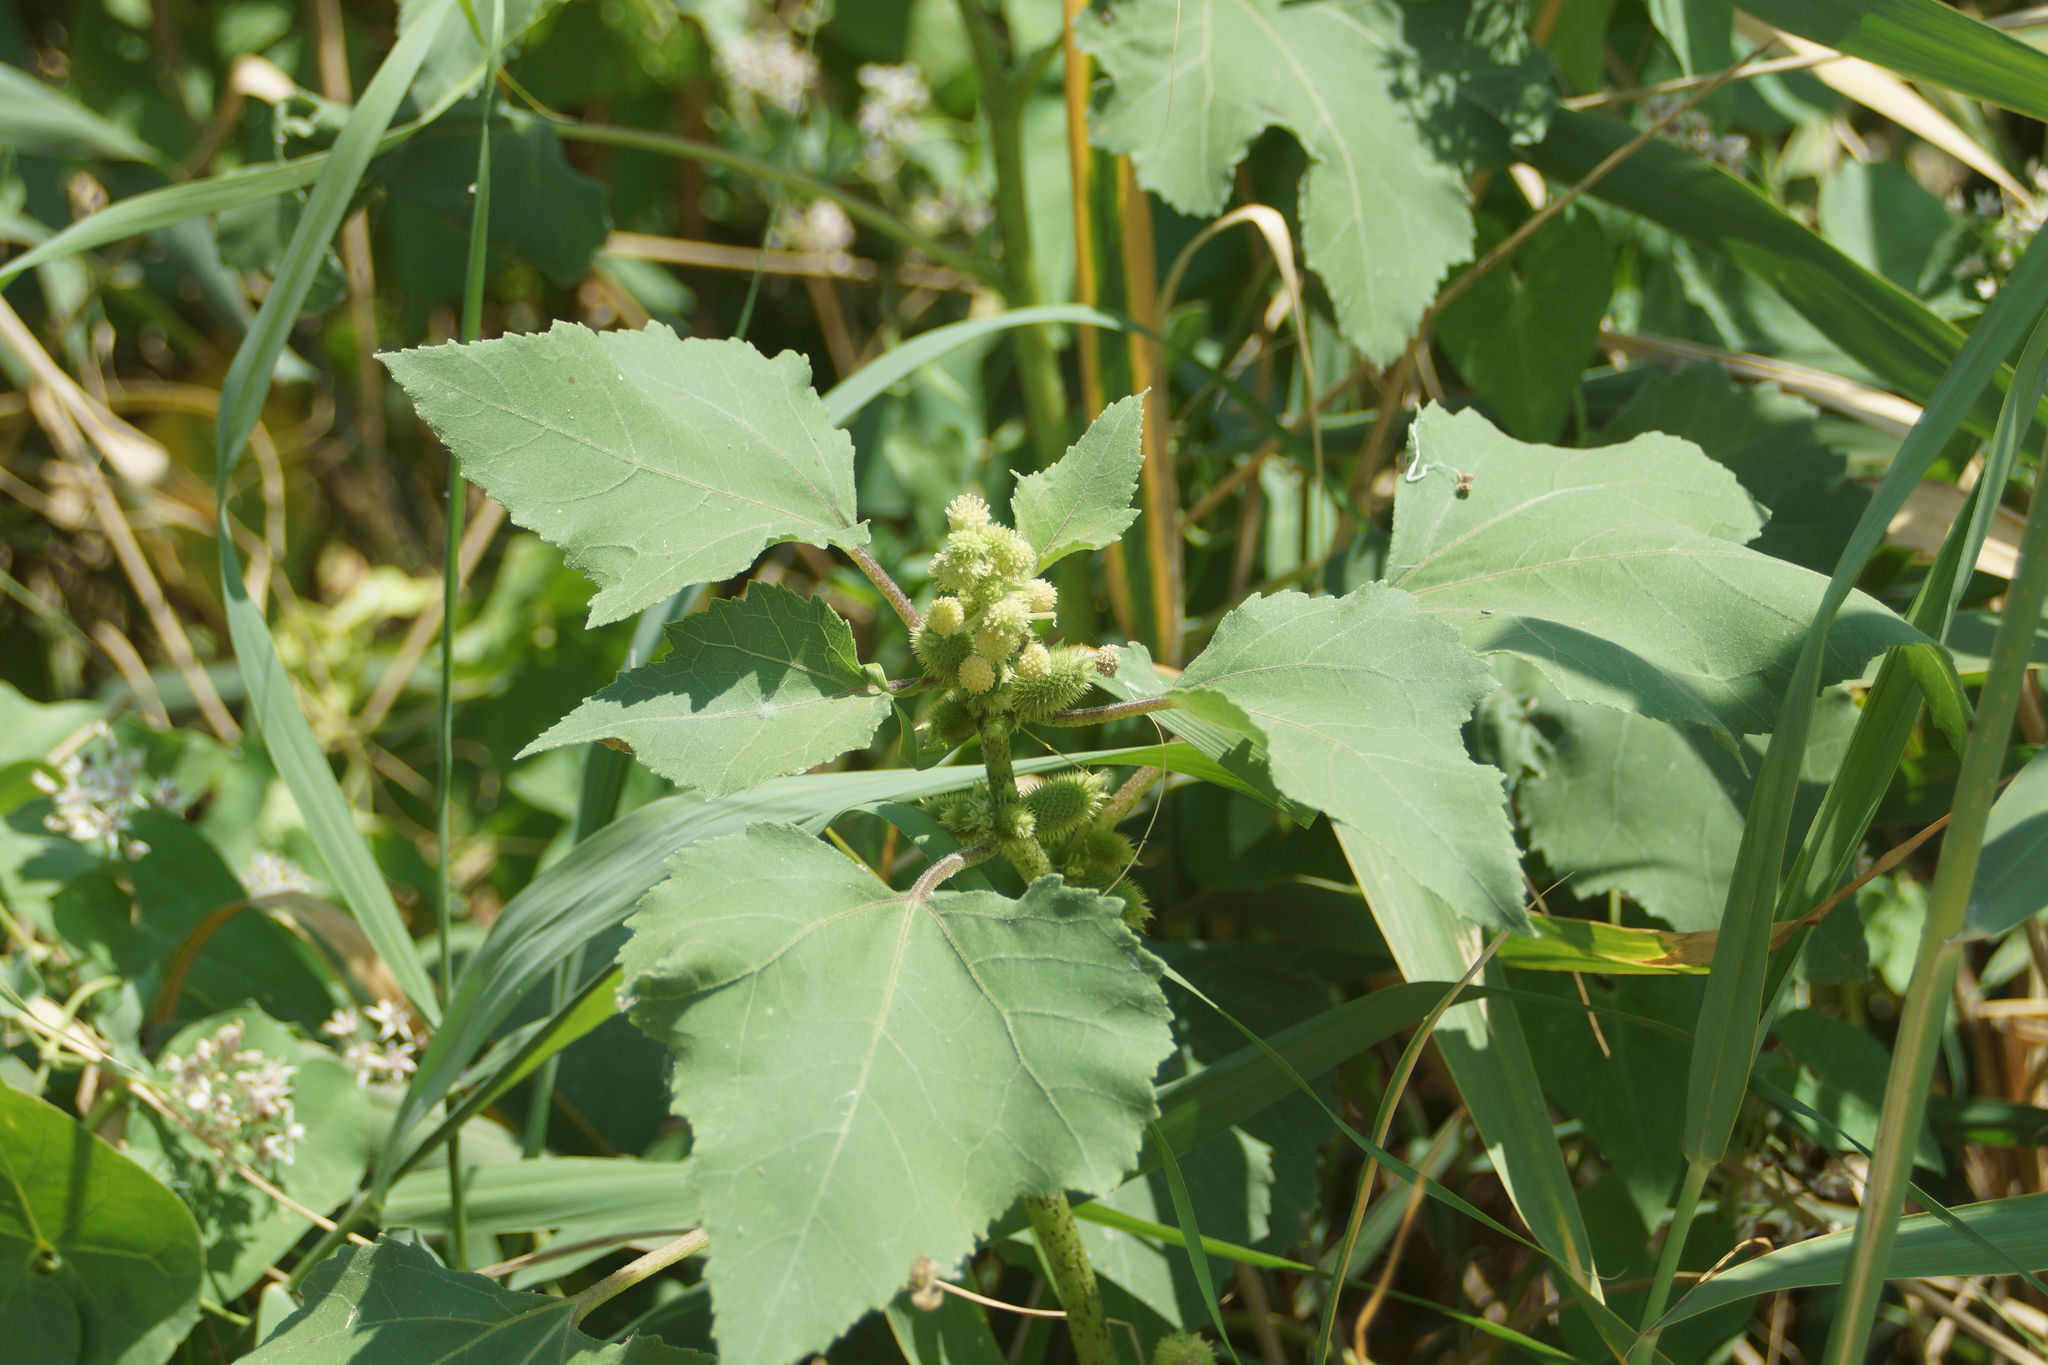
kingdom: Plantae
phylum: Tracheophyta
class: Magnoliopsida
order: Asterales
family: Asteraceae
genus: Xanthium
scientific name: Xanthium orientale
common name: Californian burr
